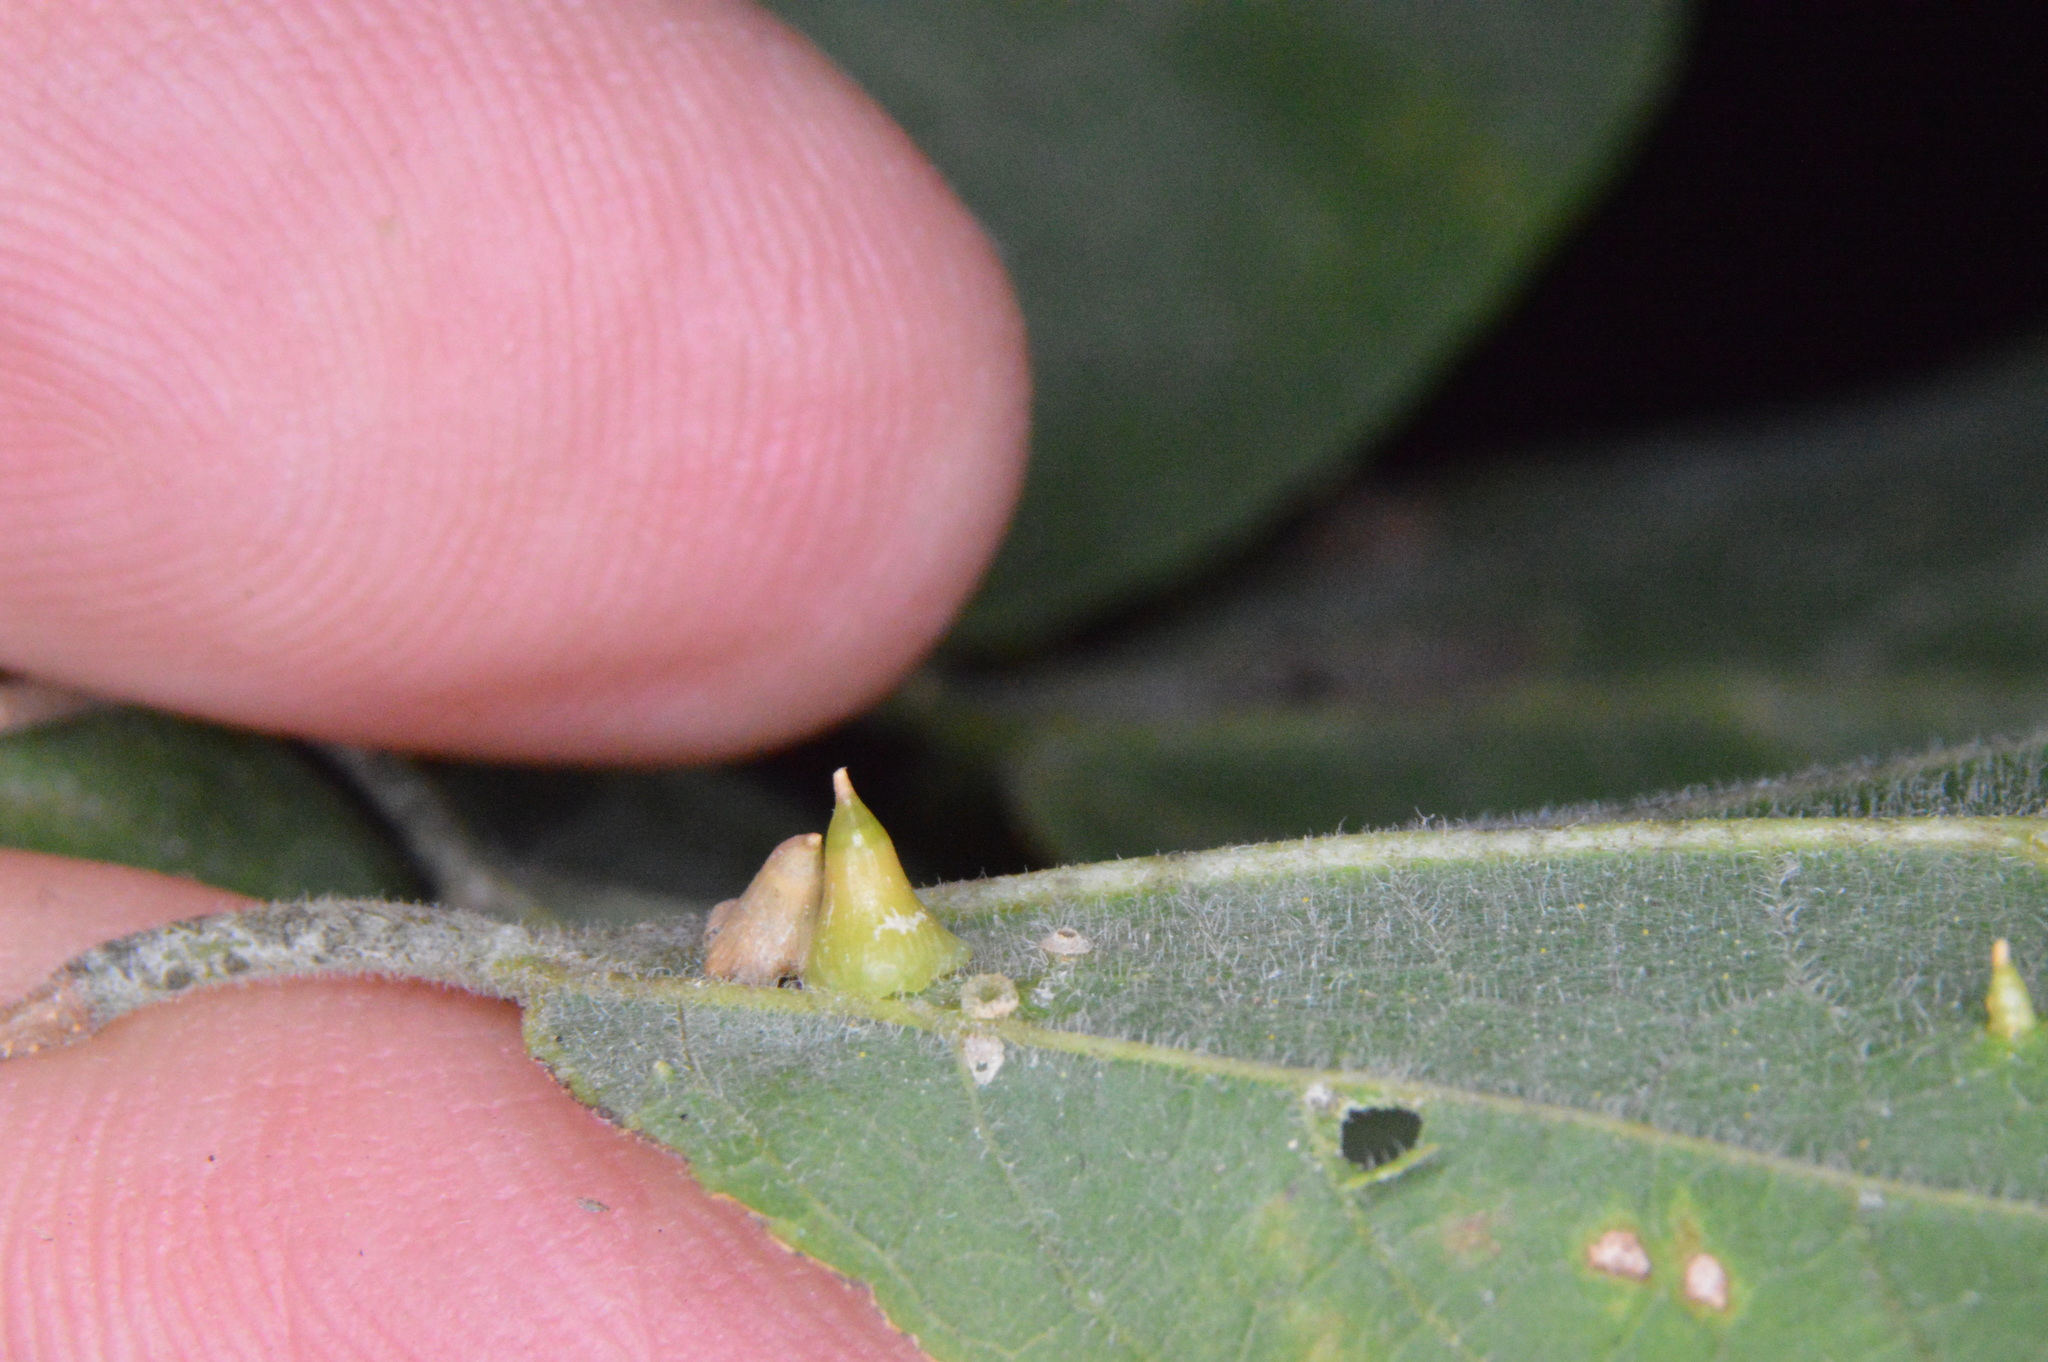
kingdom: Animalia
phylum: Arthropoda
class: Insecta
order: Diptera
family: Cecidomyiidae
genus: Celticecis
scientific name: Celticecis spiniformis
